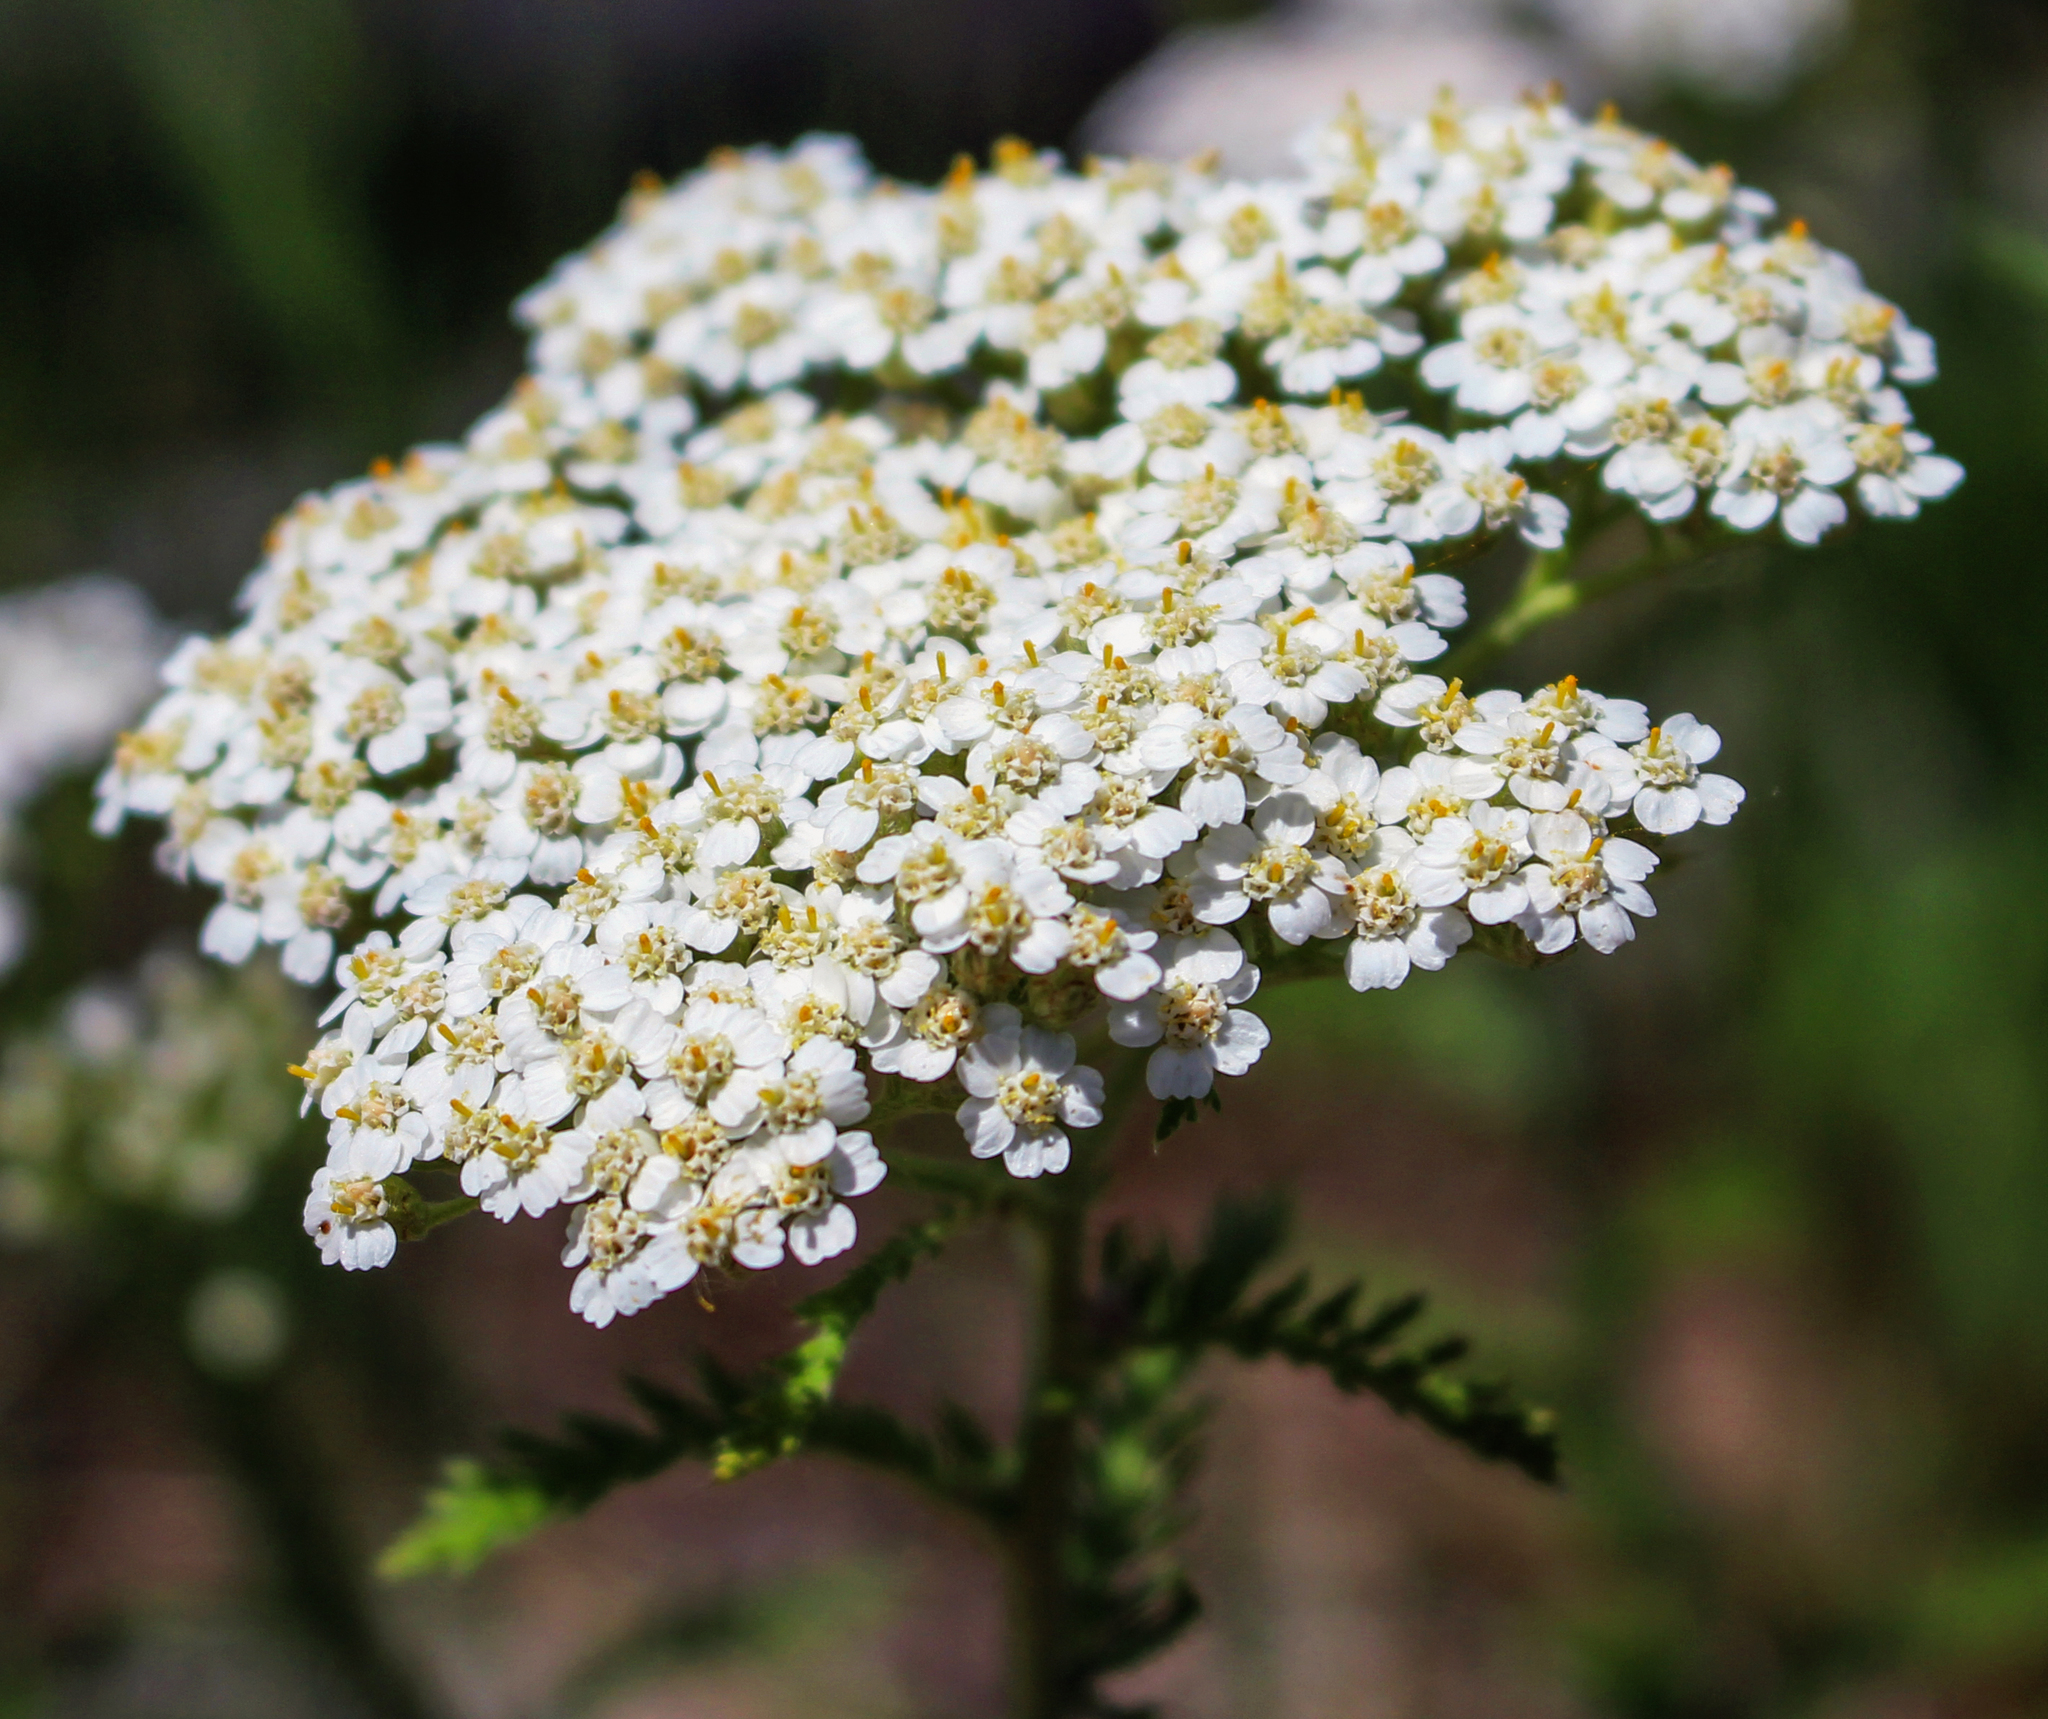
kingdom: Plantae
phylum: Tracheophyta
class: Magnoliopsida
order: Asterales
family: Asteraceae
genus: Achillea
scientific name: Achillea millefolium
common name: Yarrow
